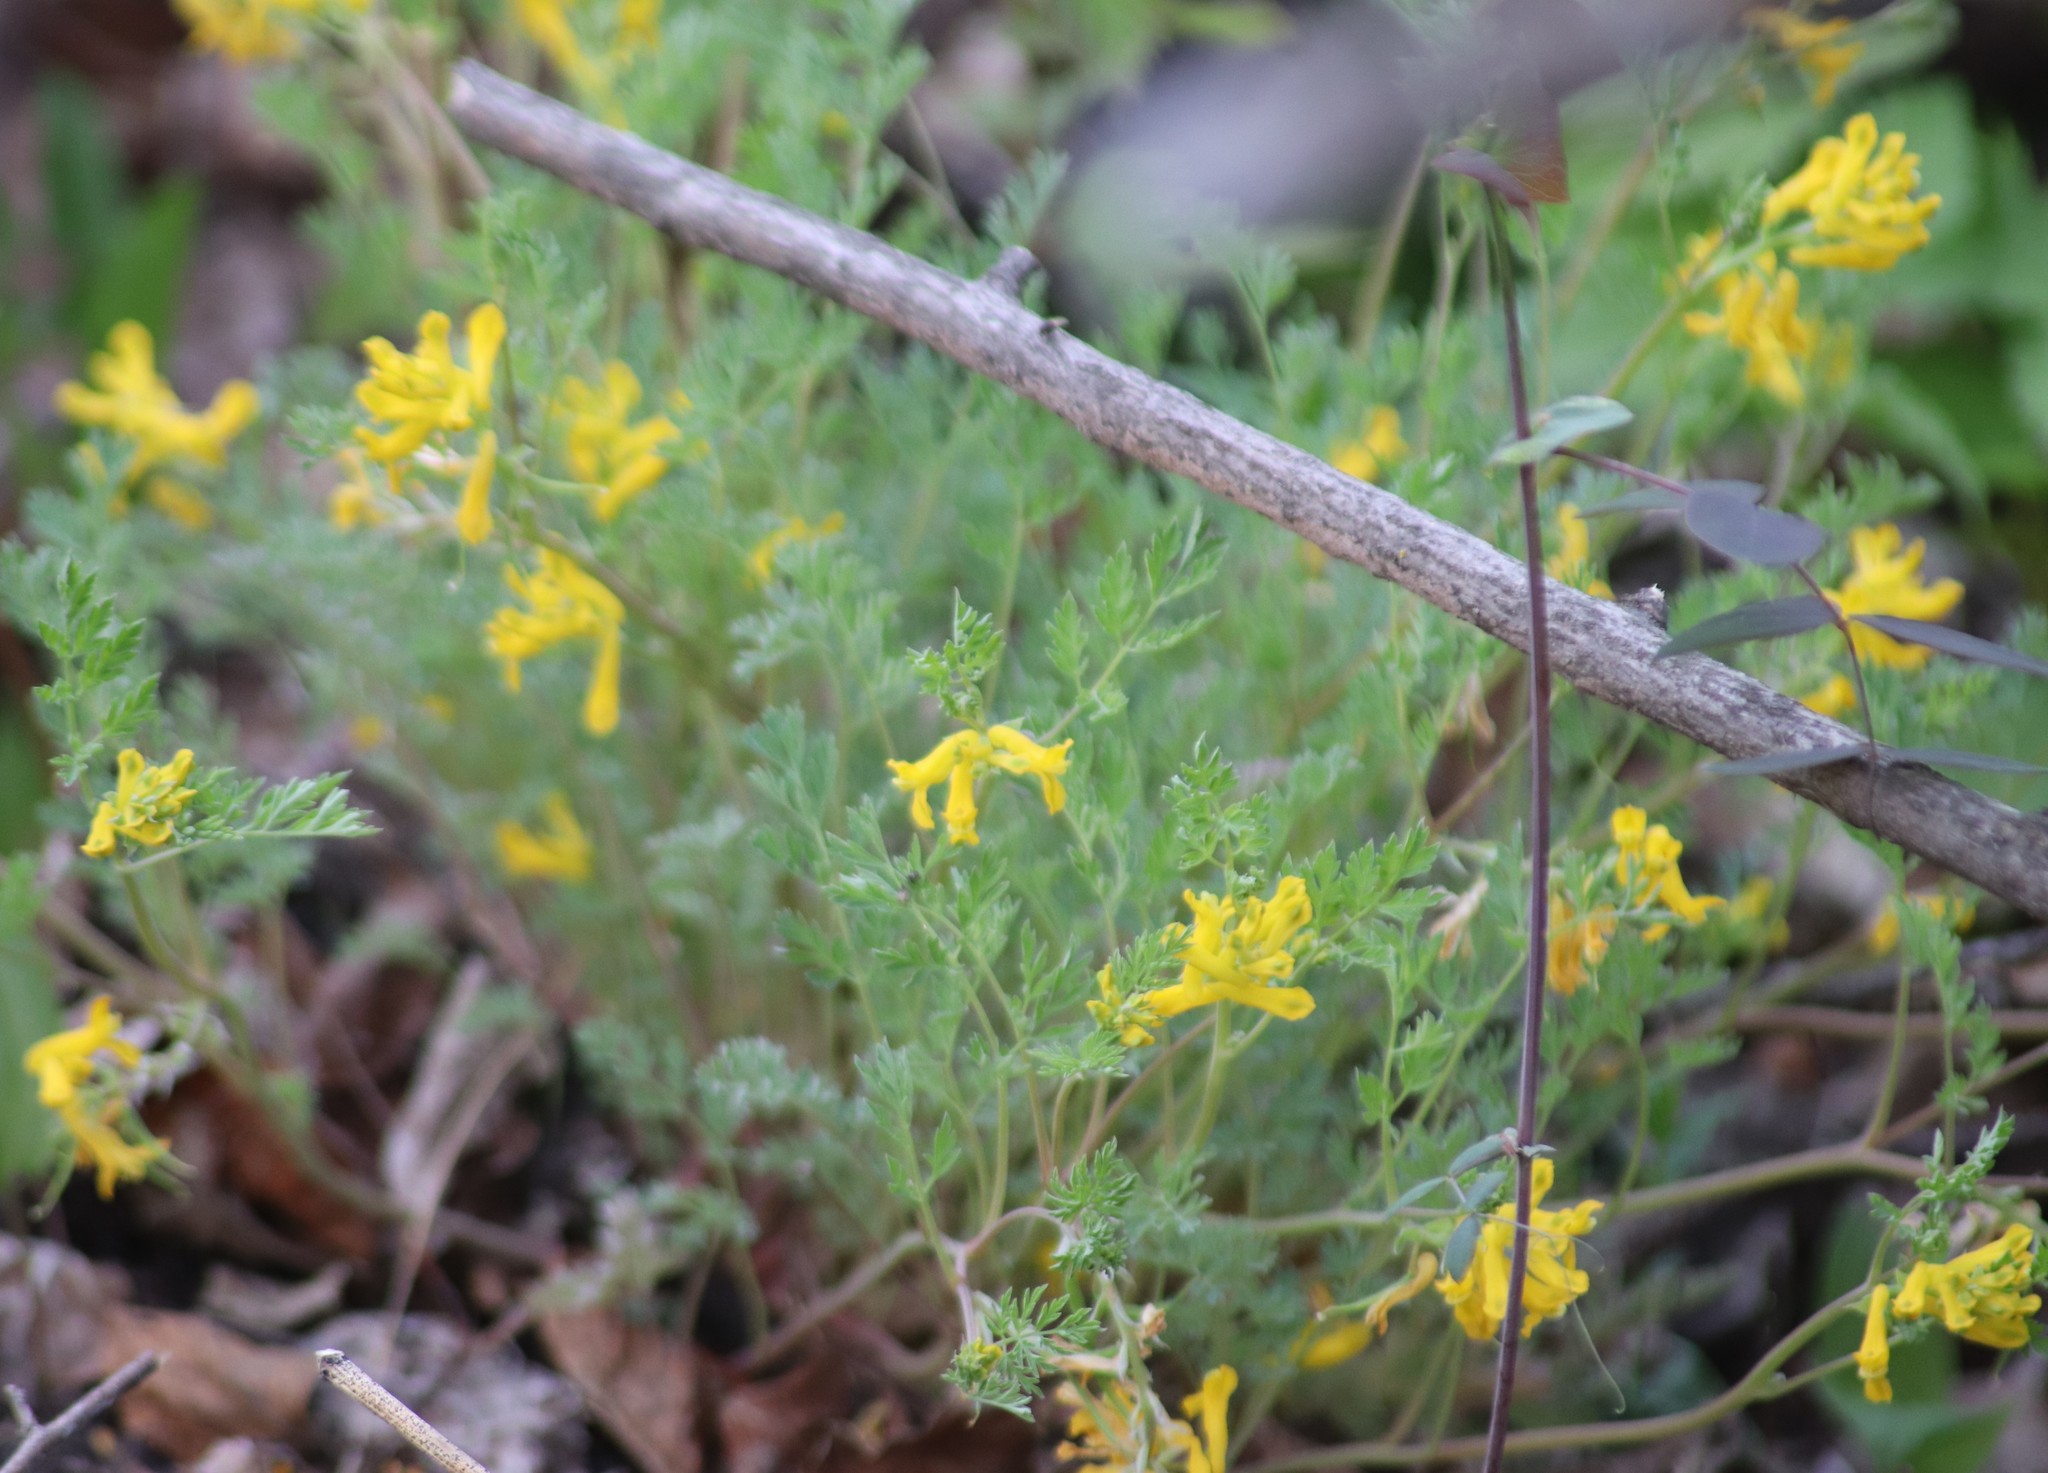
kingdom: Plantae
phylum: Tracheophyta
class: Magnoliopsida
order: Ranunculales
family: Papaveraceae
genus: Corydalis
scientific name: Corydalis aurea
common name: Golden corydalis
